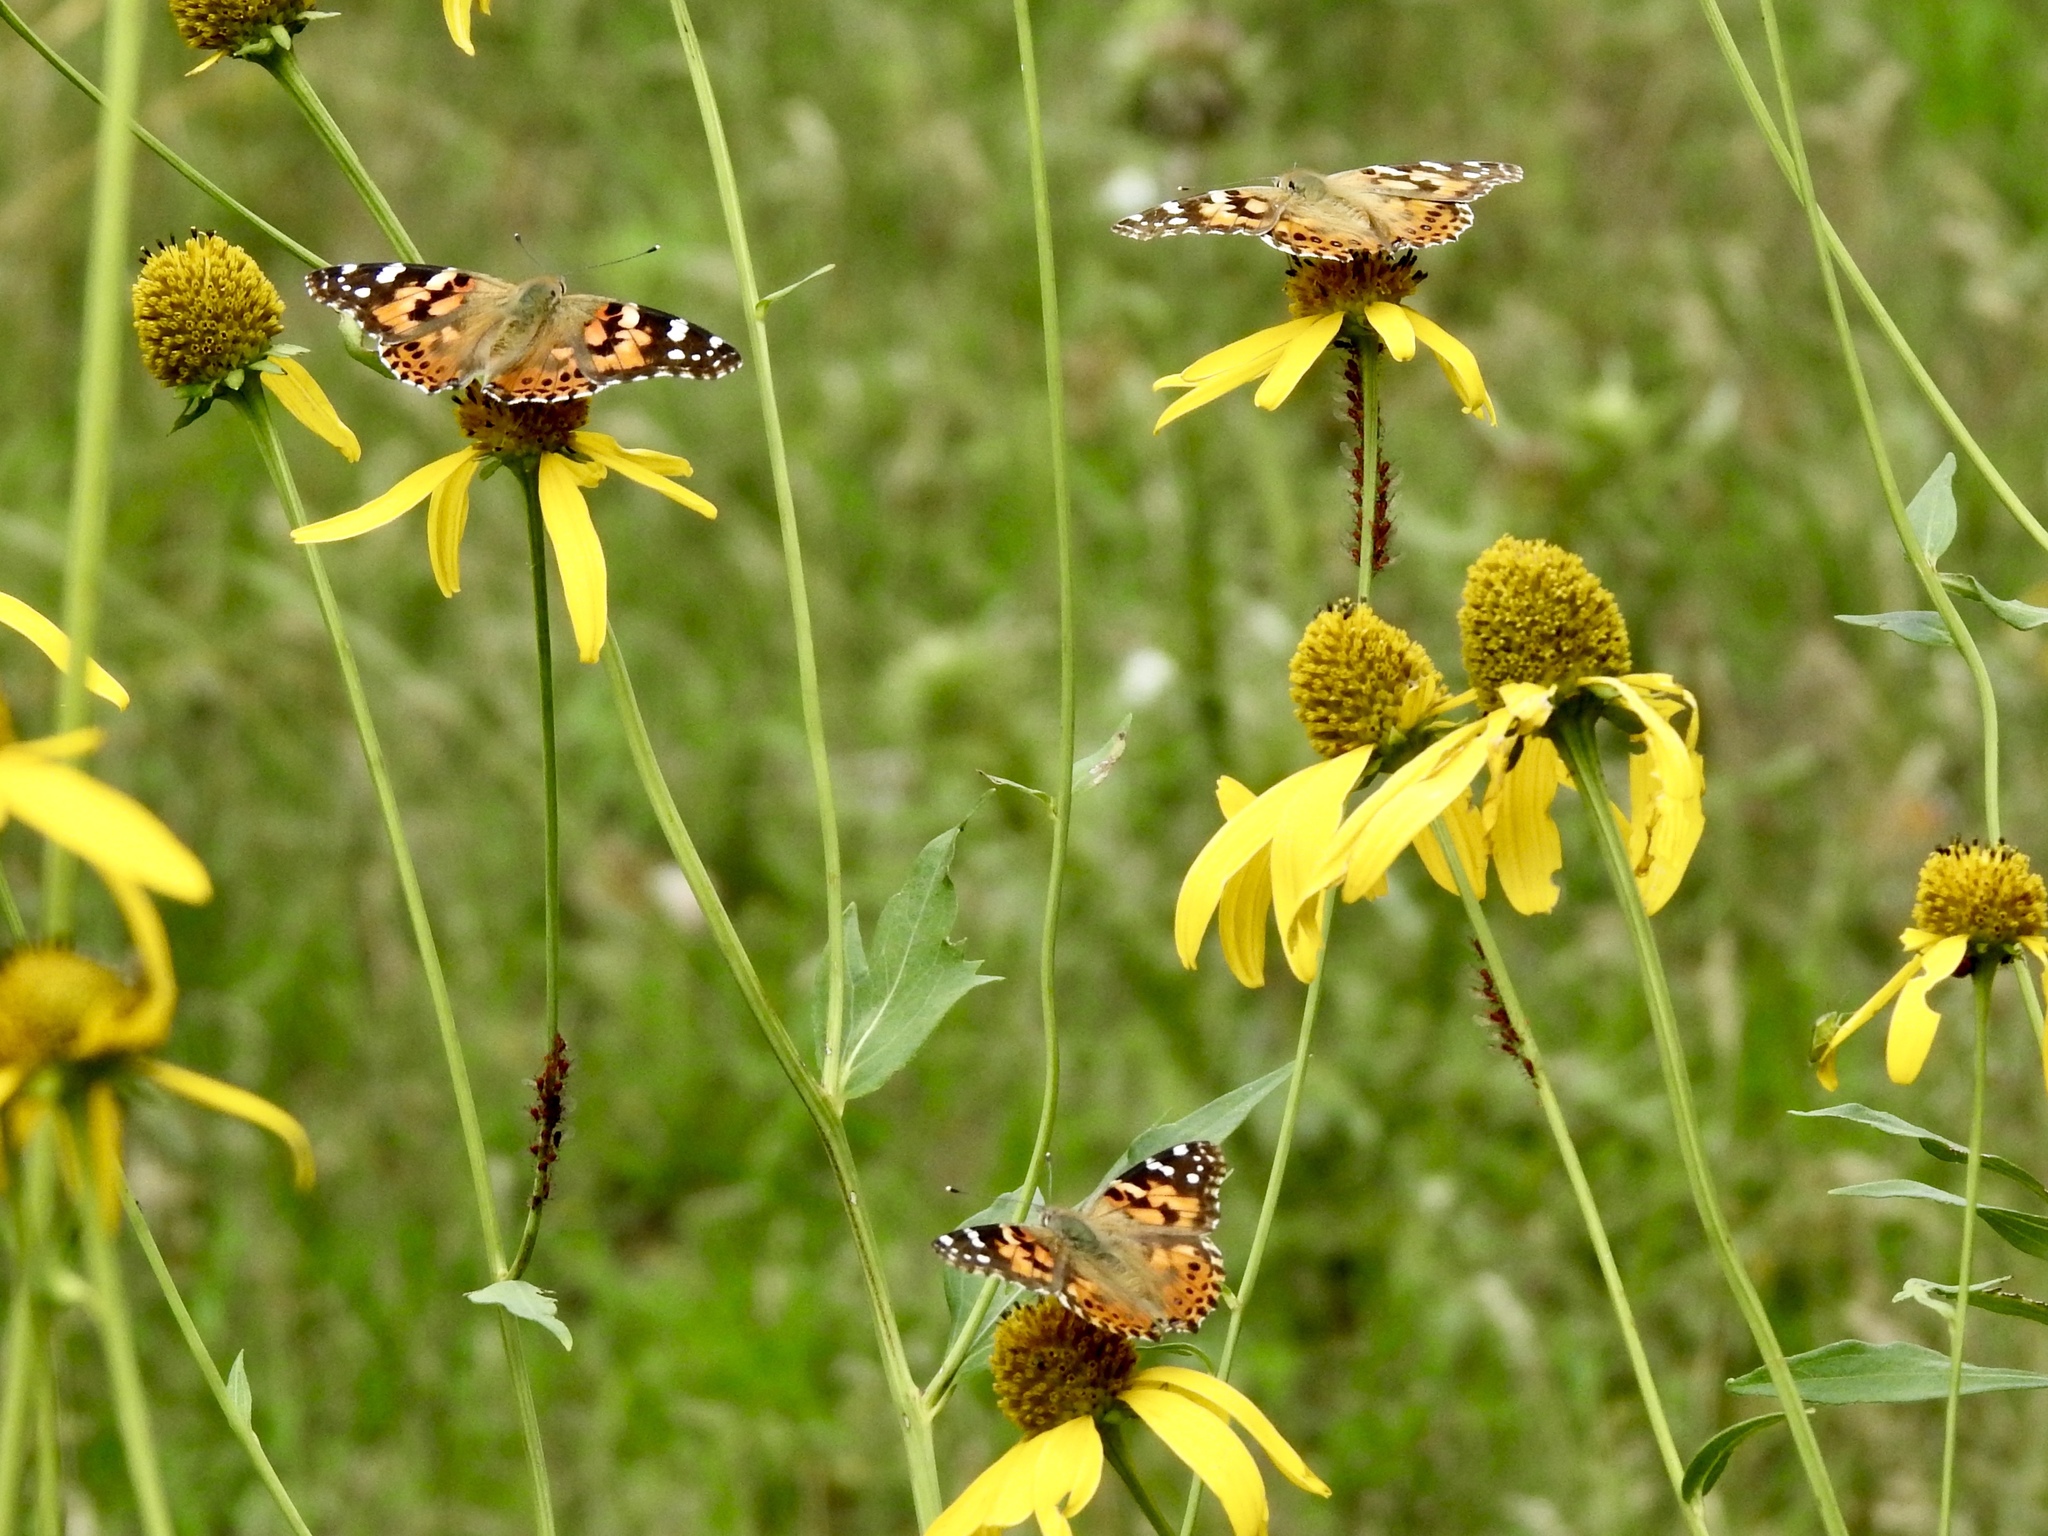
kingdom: Animalia
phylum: Arthropoda
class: Insecta
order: Lepidoptera
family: Nymphalidae
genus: Vanessa
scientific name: Vanessa cardui
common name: Painted lady
